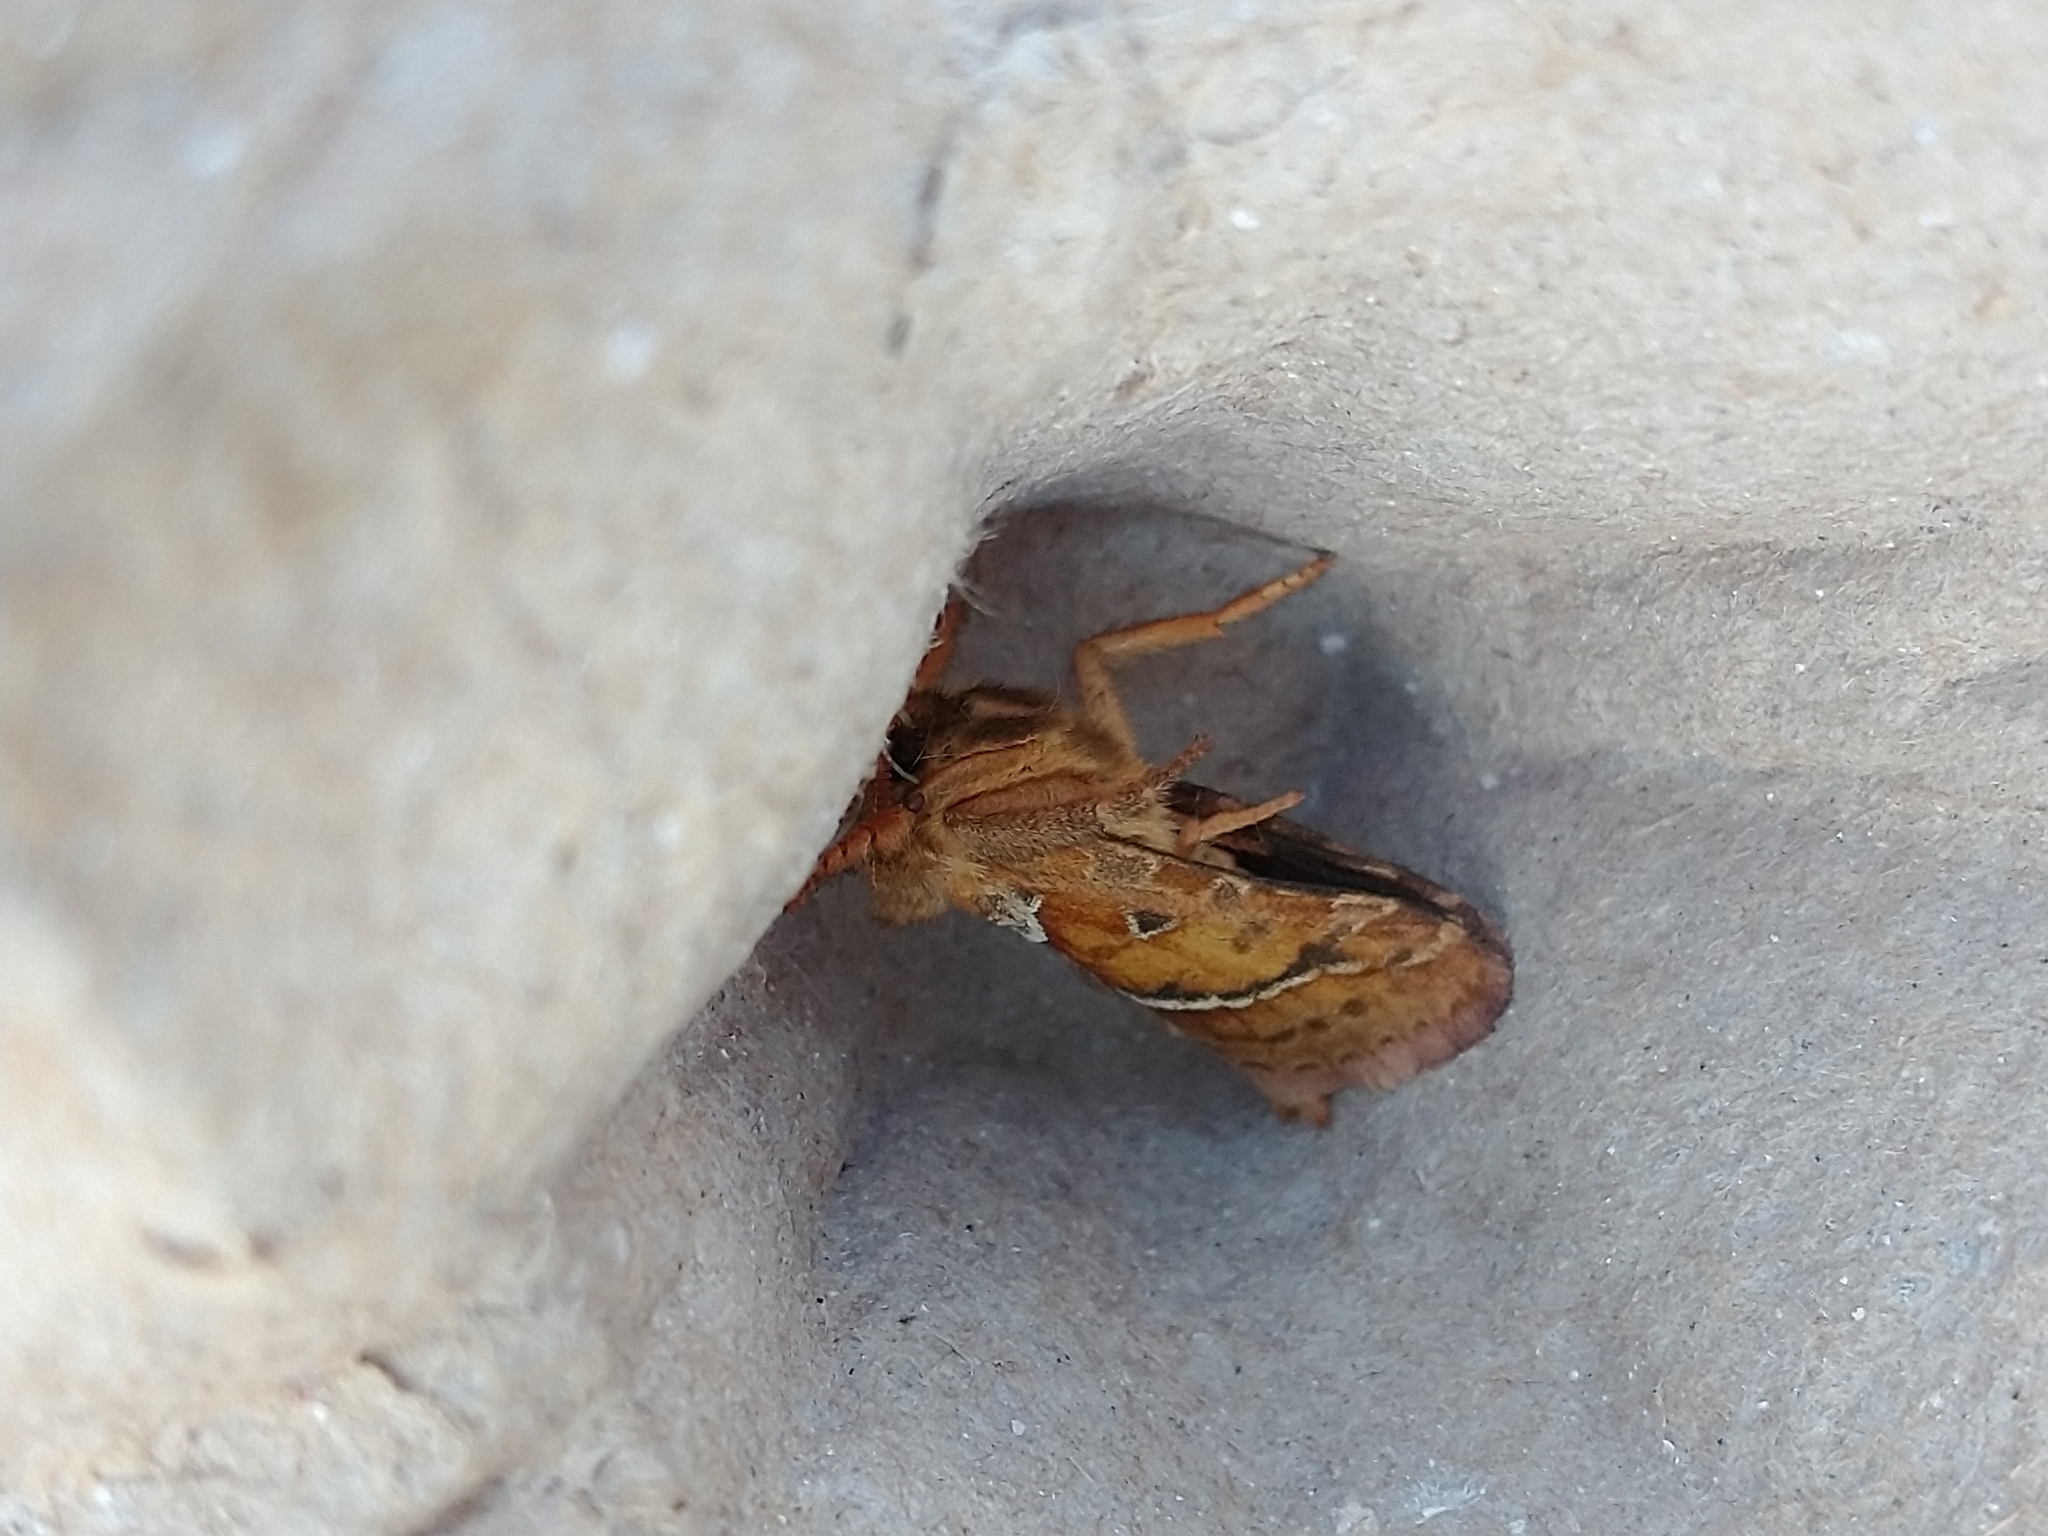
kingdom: Animalia
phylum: Arthropoda
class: Insecta
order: Lepidoptera
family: Hepialidae
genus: Triodia
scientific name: Triodia sylvina
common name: Orange swift
